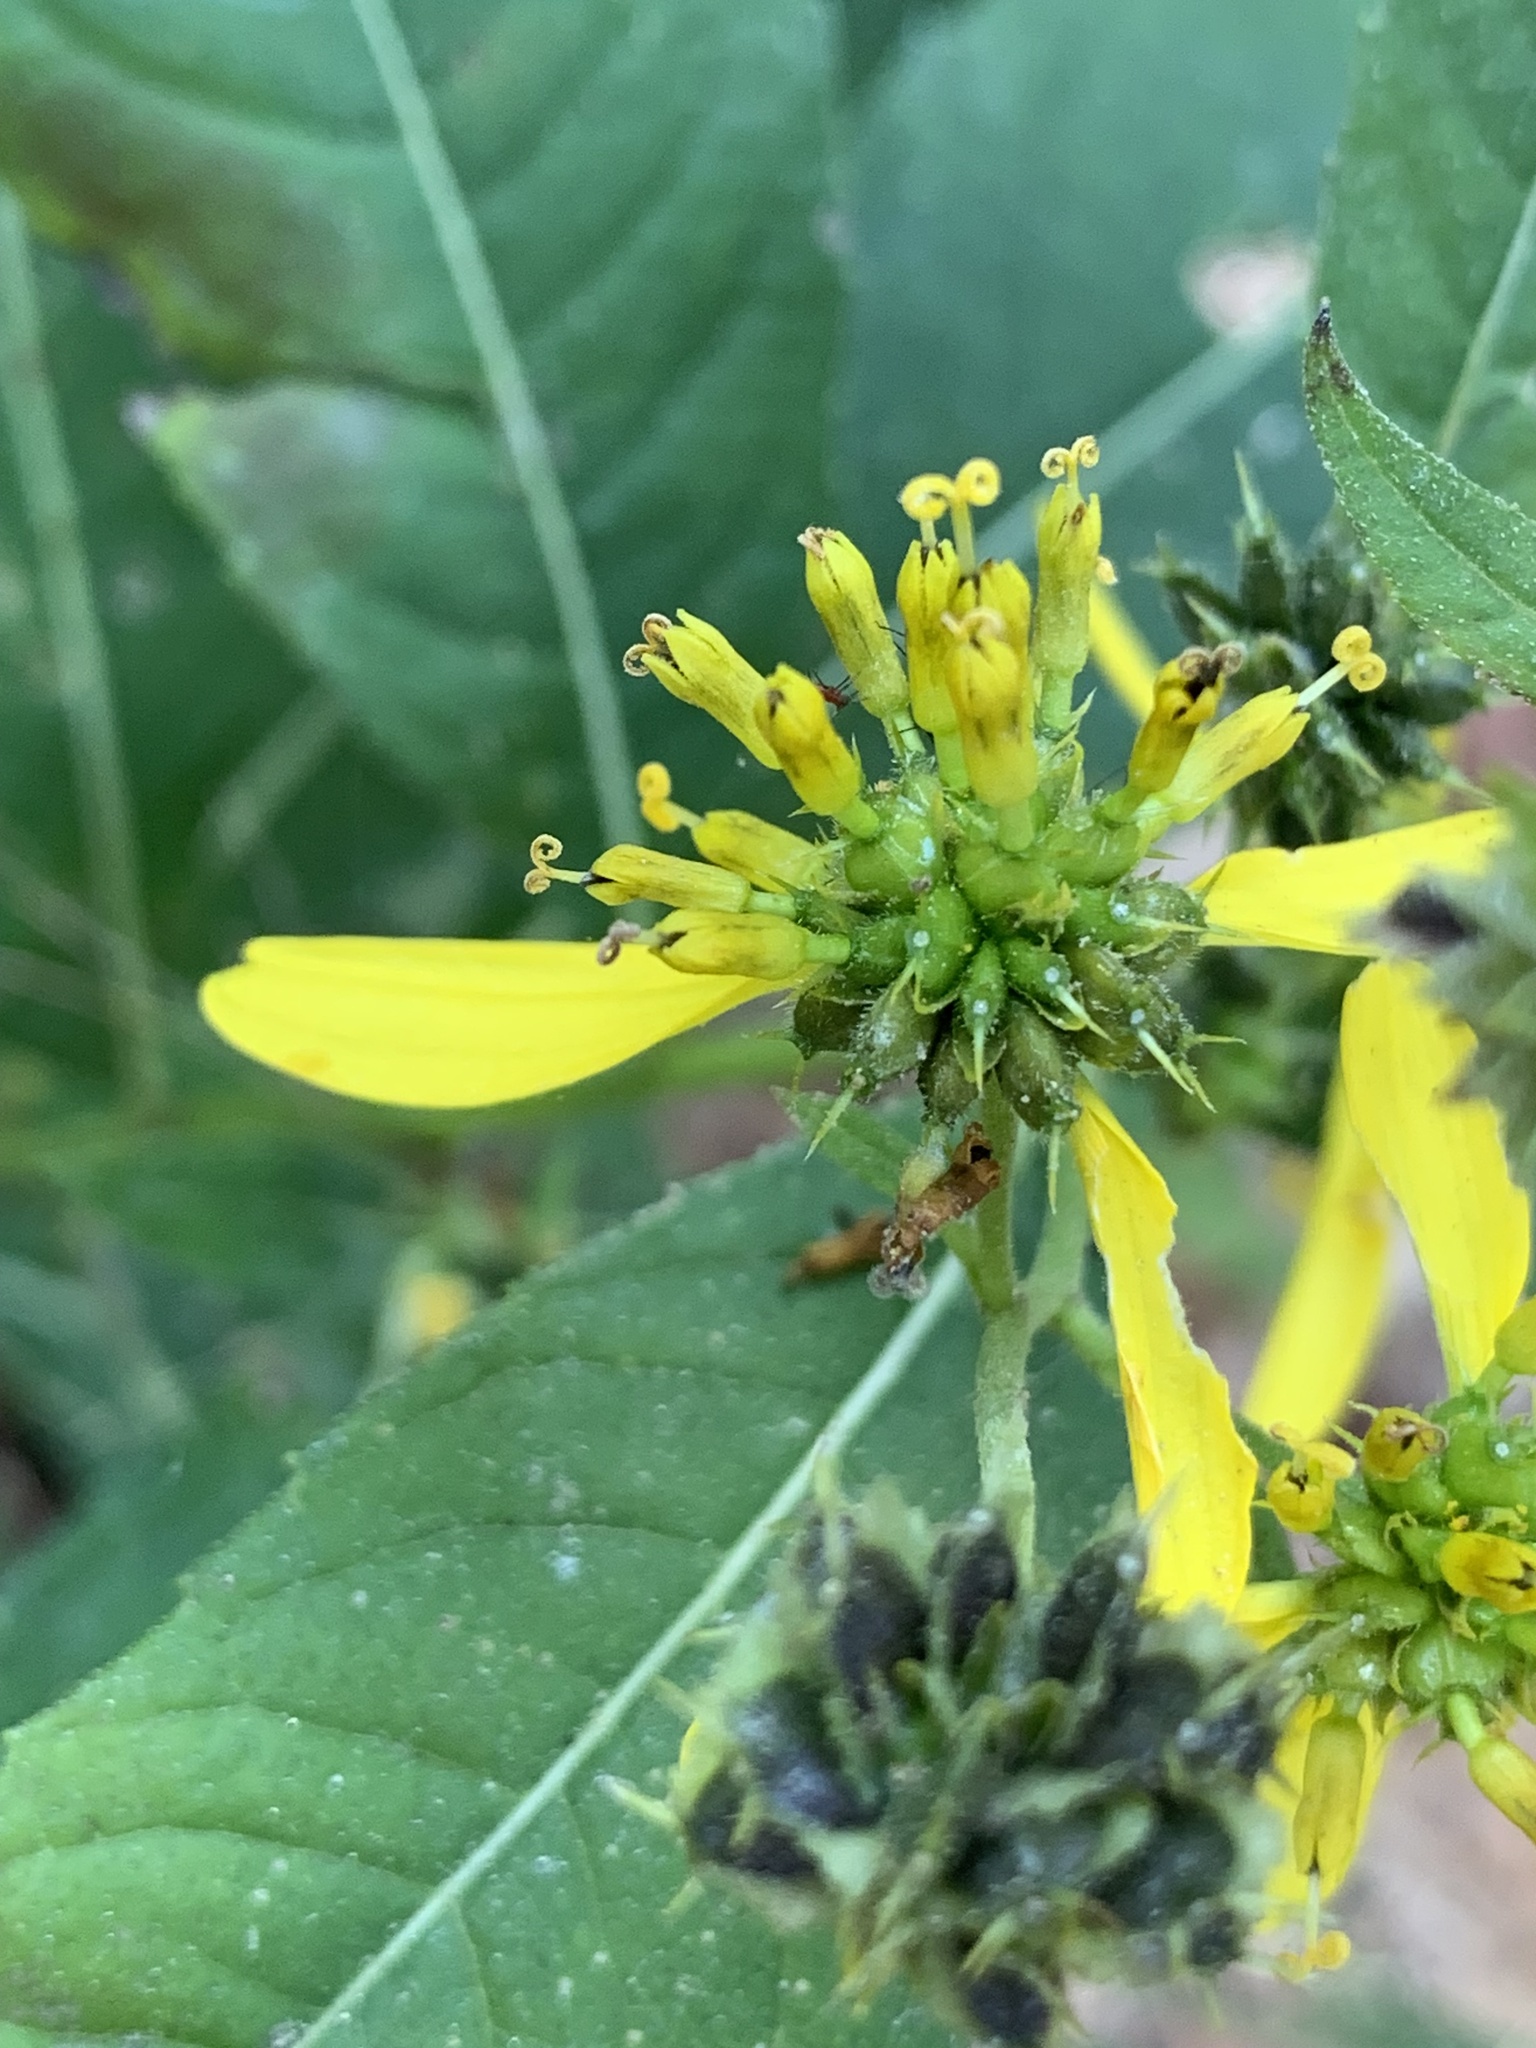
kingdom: Plantae
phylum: Tracheophyta
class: Magnoliopsida
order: Asterales
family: Asteraceae
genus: Verbesina
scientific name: Verbesina alternifolia
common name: Wingstem
